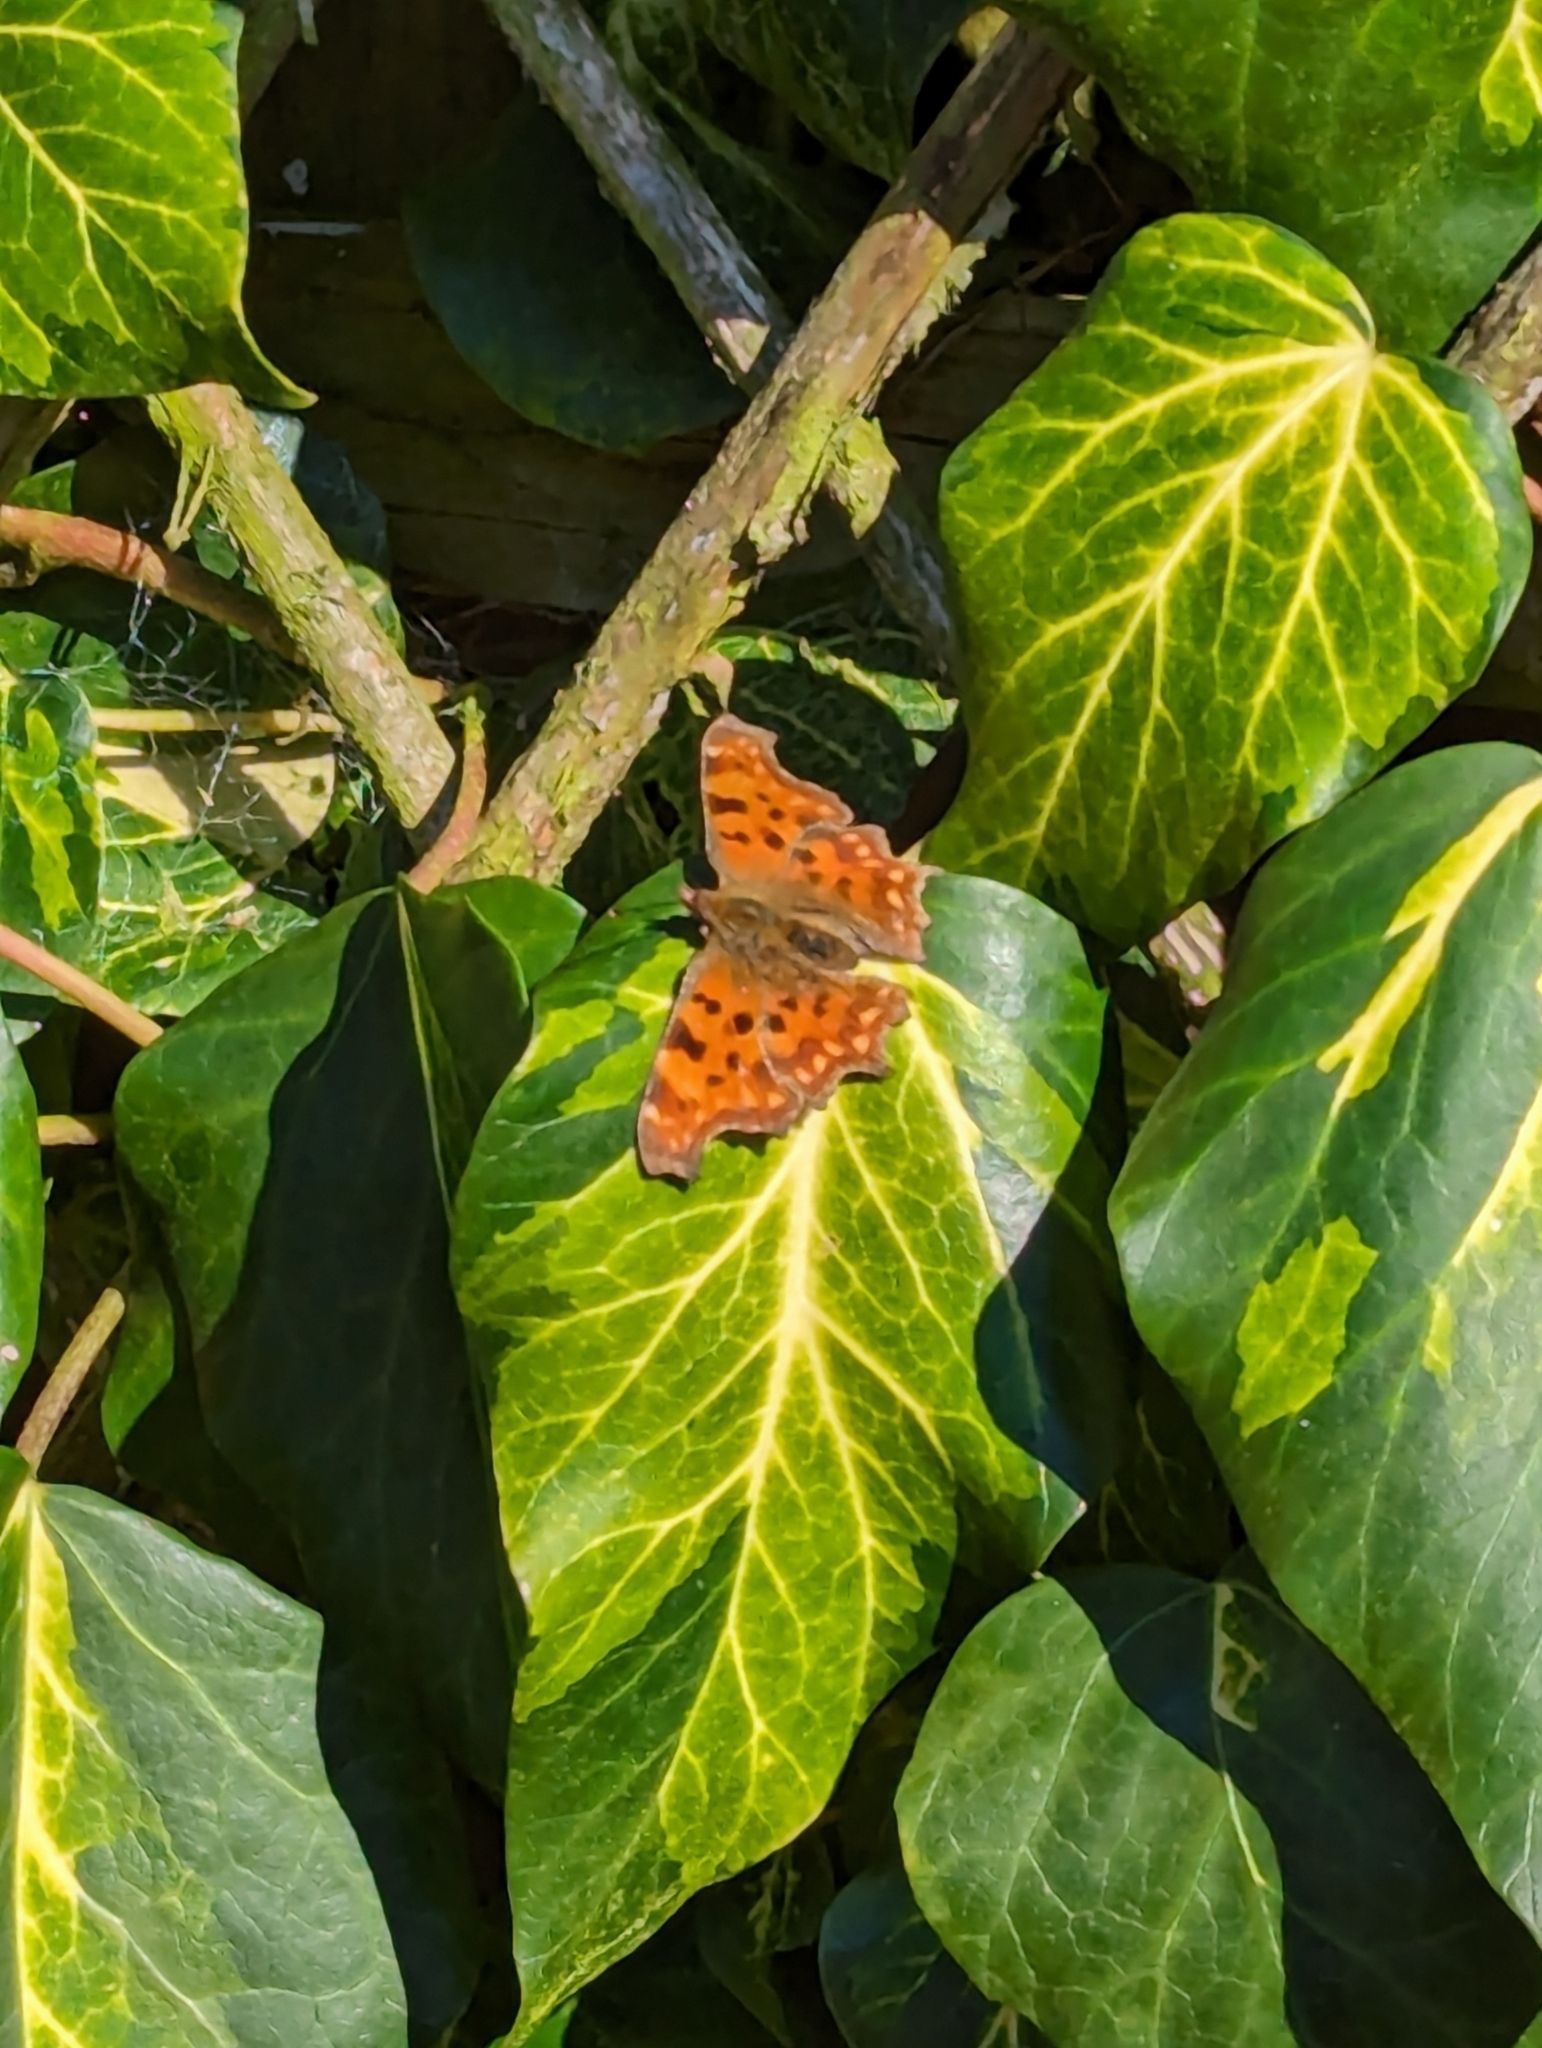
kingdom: Animalia
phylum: Arthropoda
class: Insecta
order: Lepidoptera
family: Nymphalidae
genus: Polygonia
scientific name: Polygonia c-album
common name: Comma
